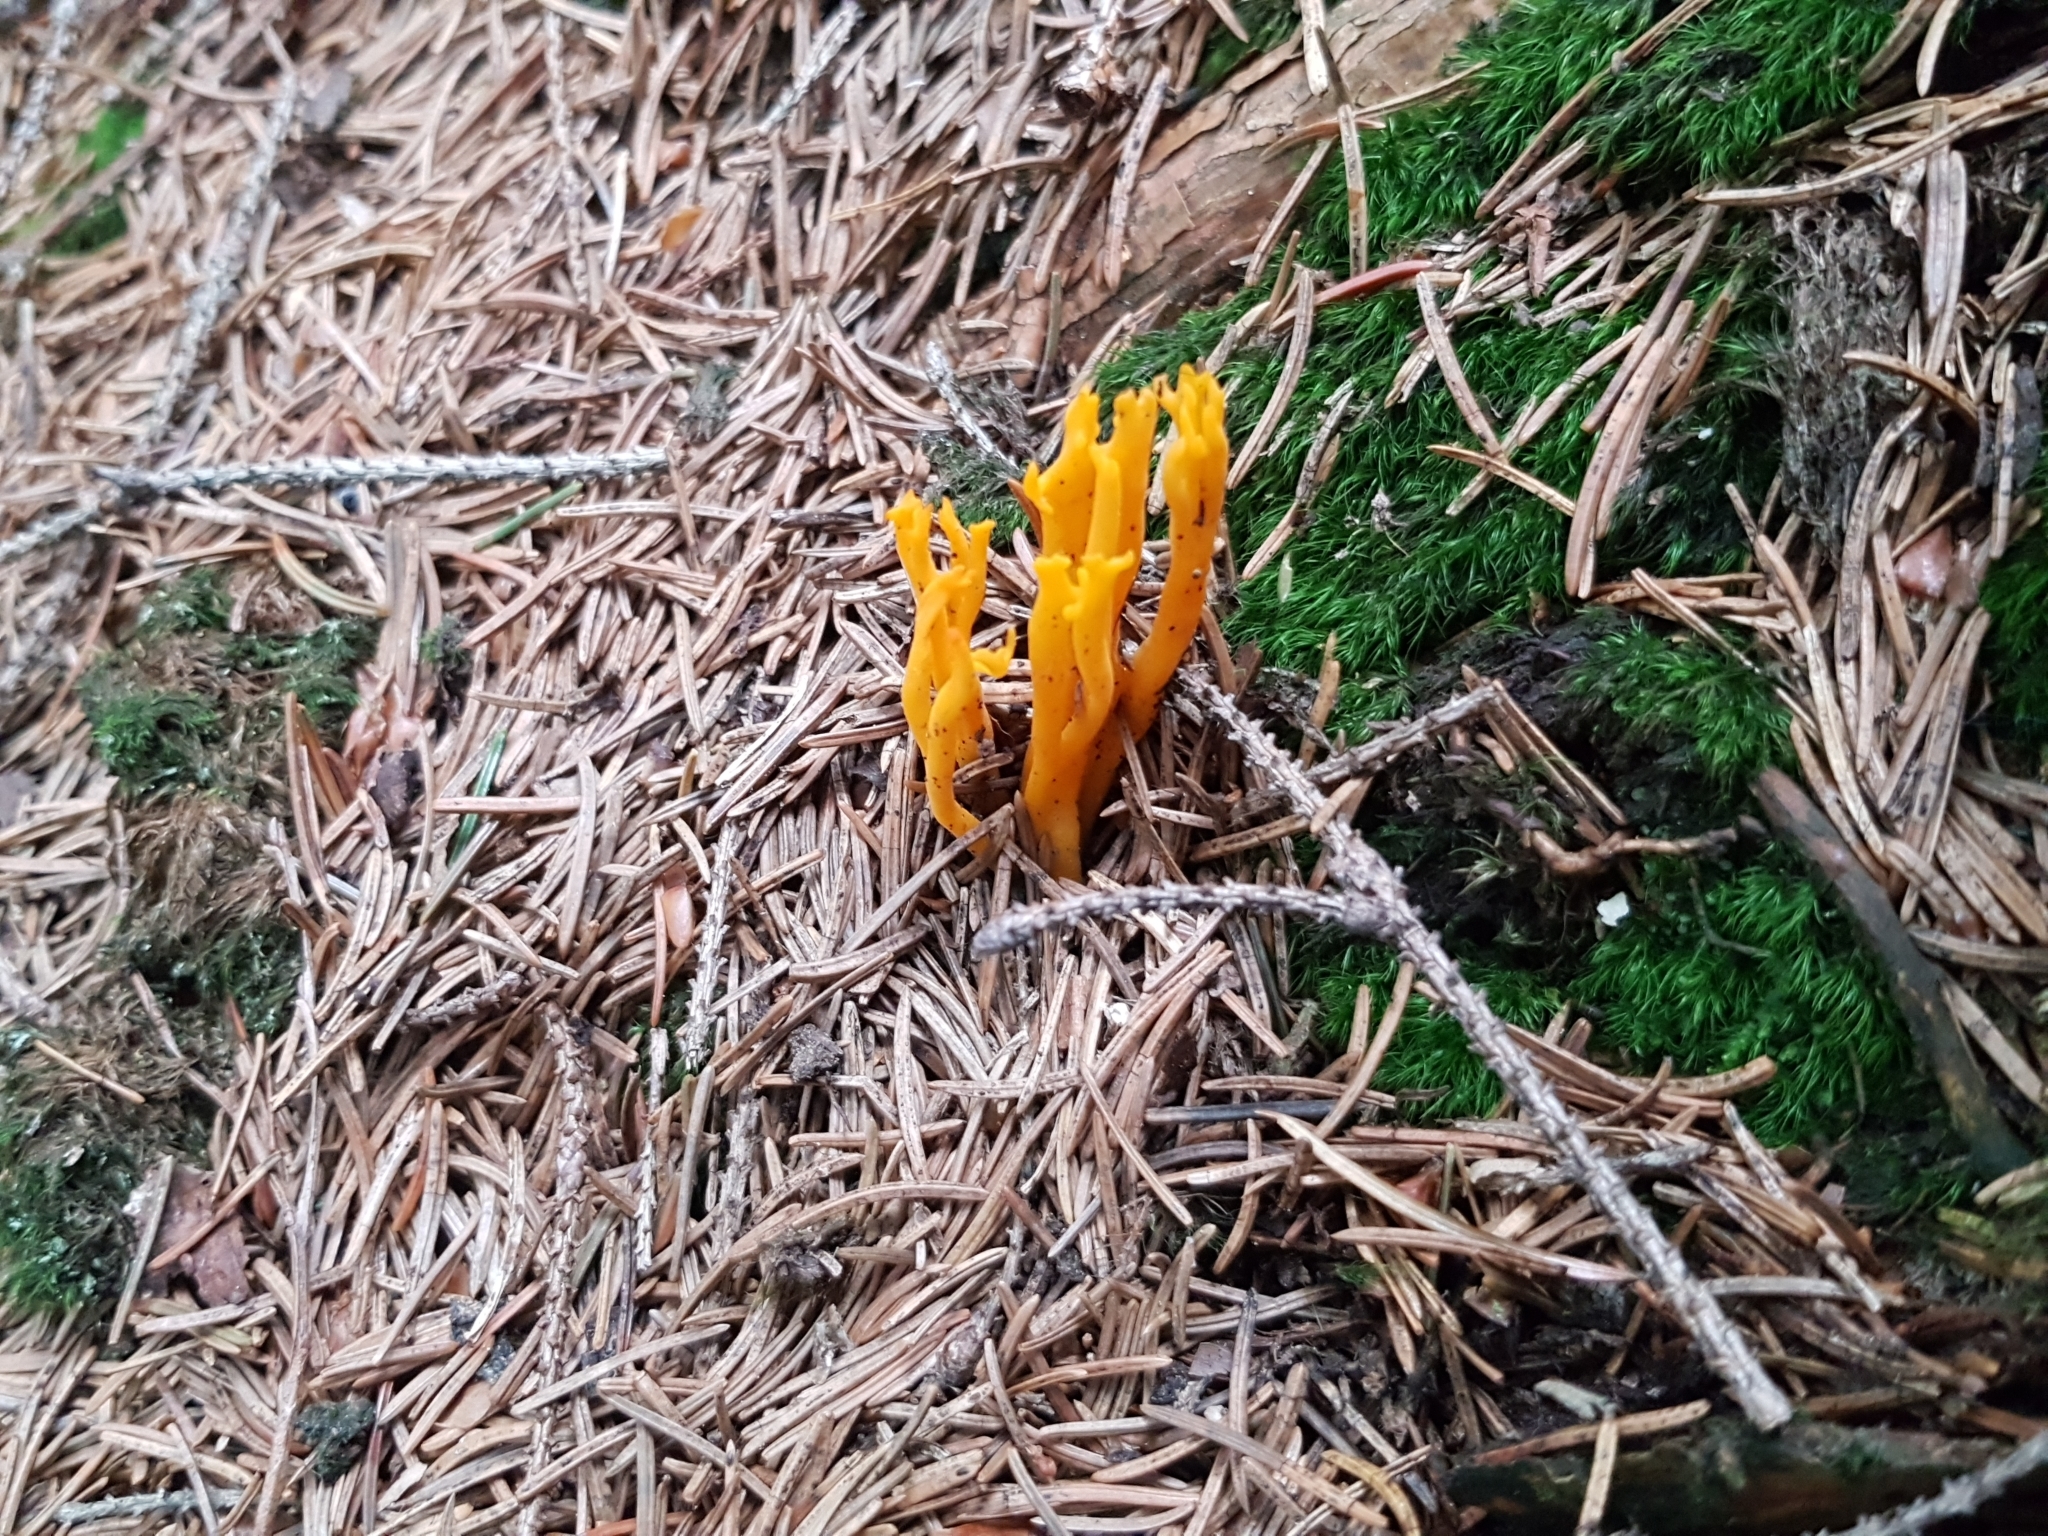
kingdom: Fungi
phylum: Basidiomycota
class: Dacrymycetes
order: Dacrymycetales
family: Dacrymycetaceae
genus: Calocera
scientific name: Calocera viscosa
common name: Yellow stagshorn
